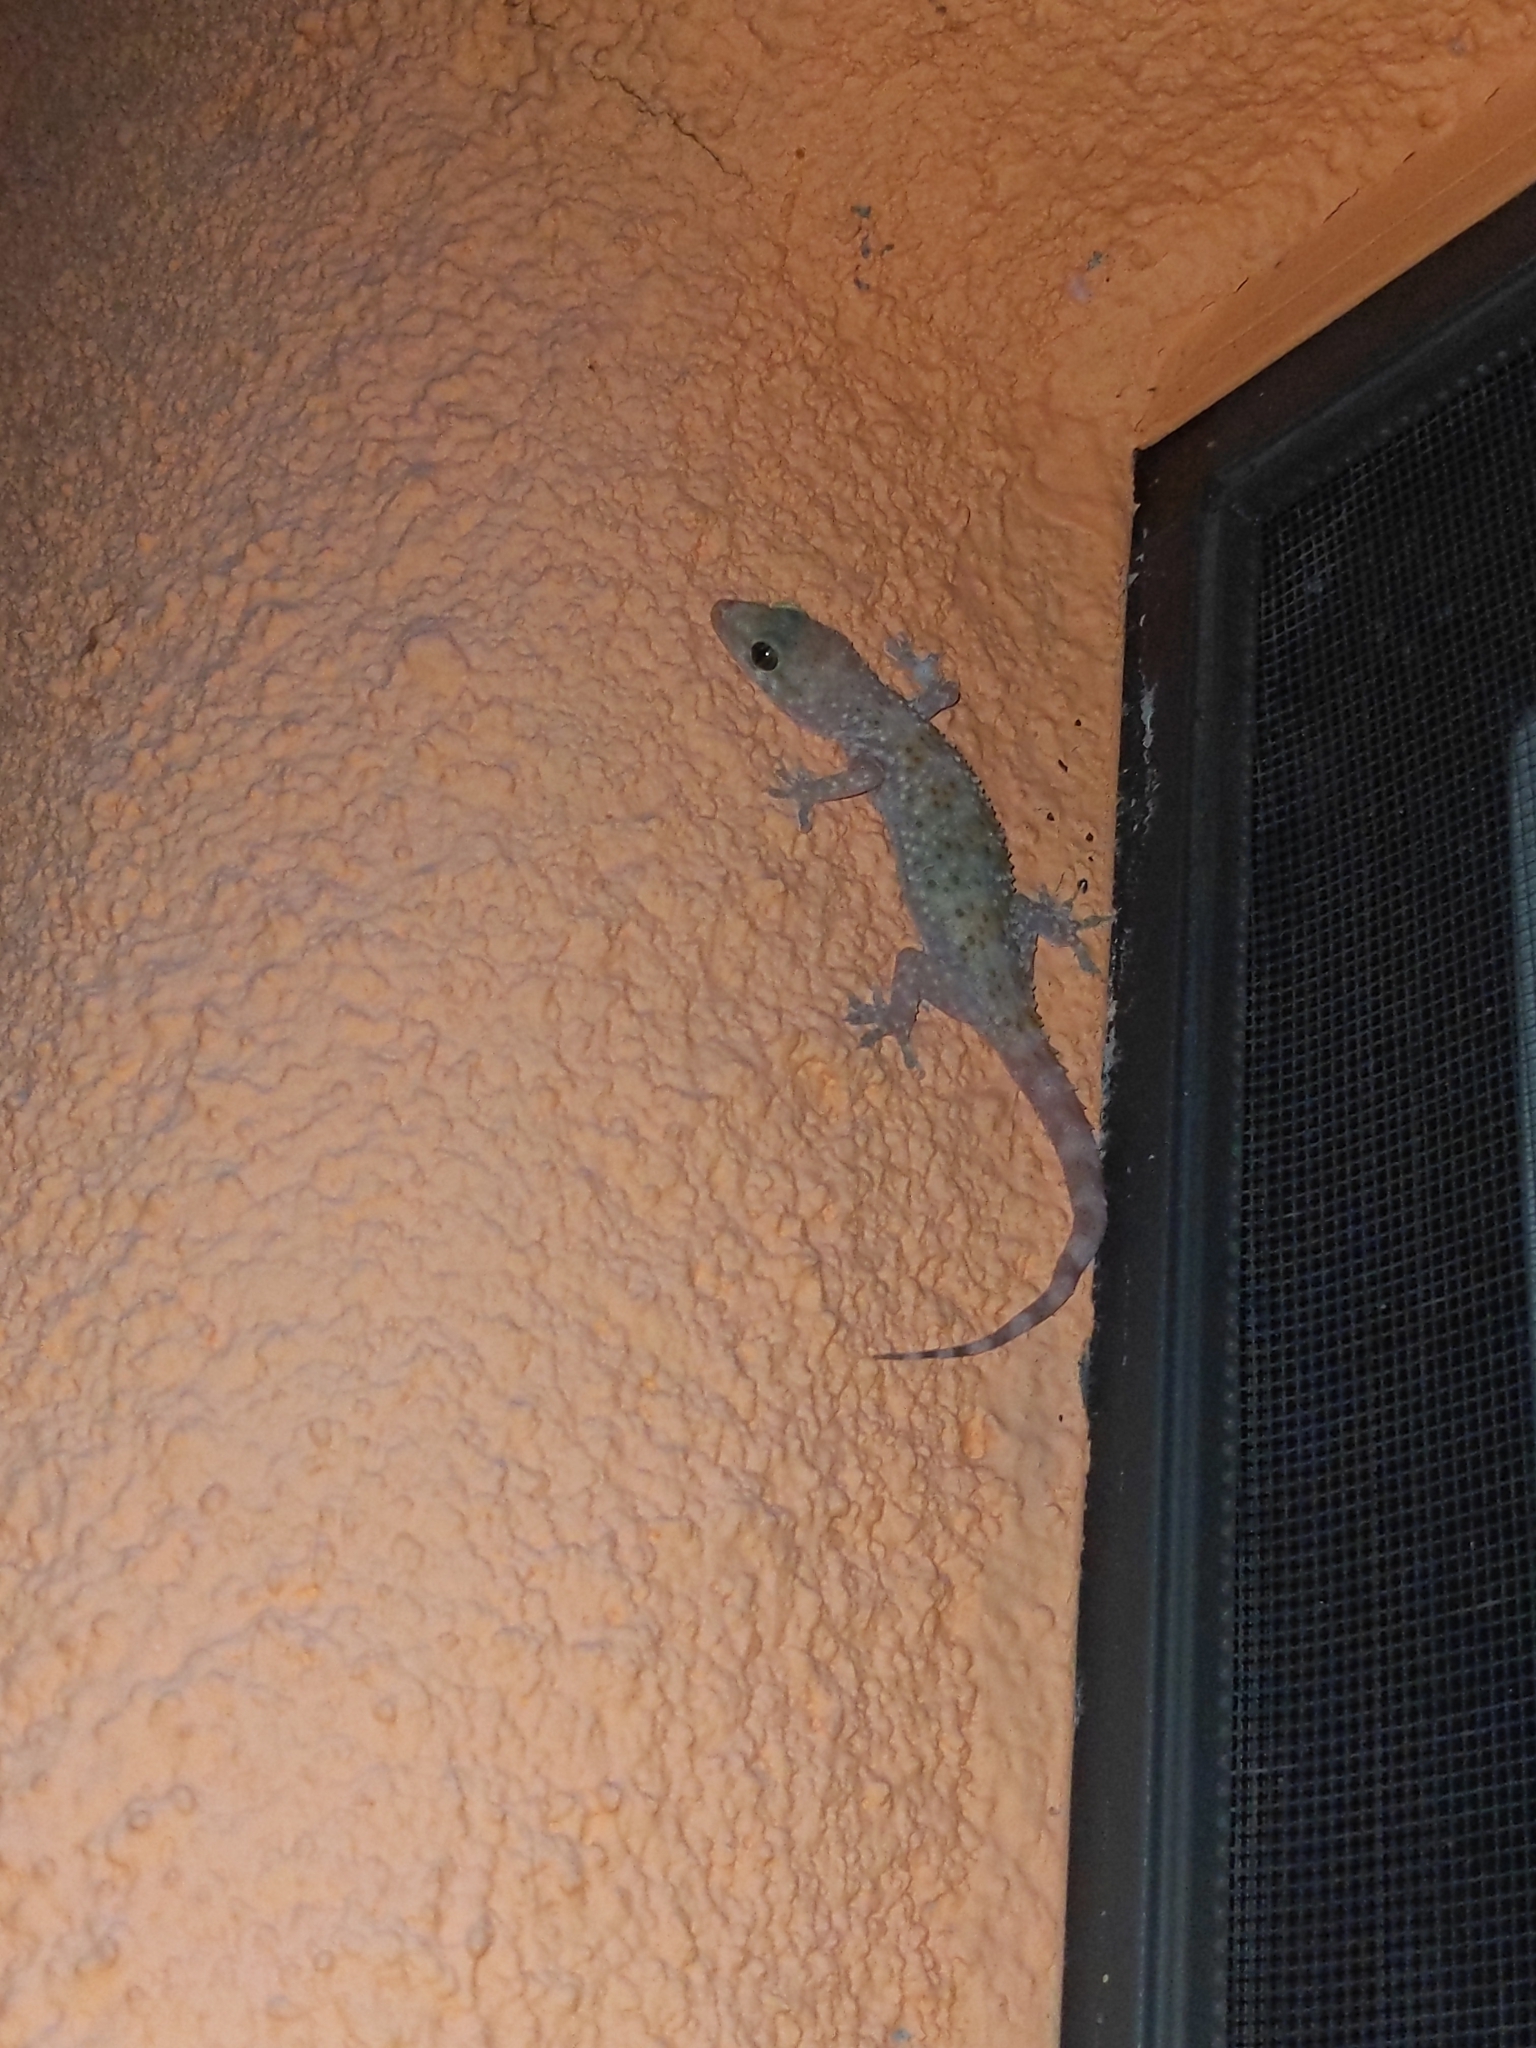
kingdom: Animalia
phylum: Chordata
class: Squamata
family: Gekkonidae
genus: Hemidactylus
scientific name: Hemidactylus turcicus
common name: Turkish gecko
